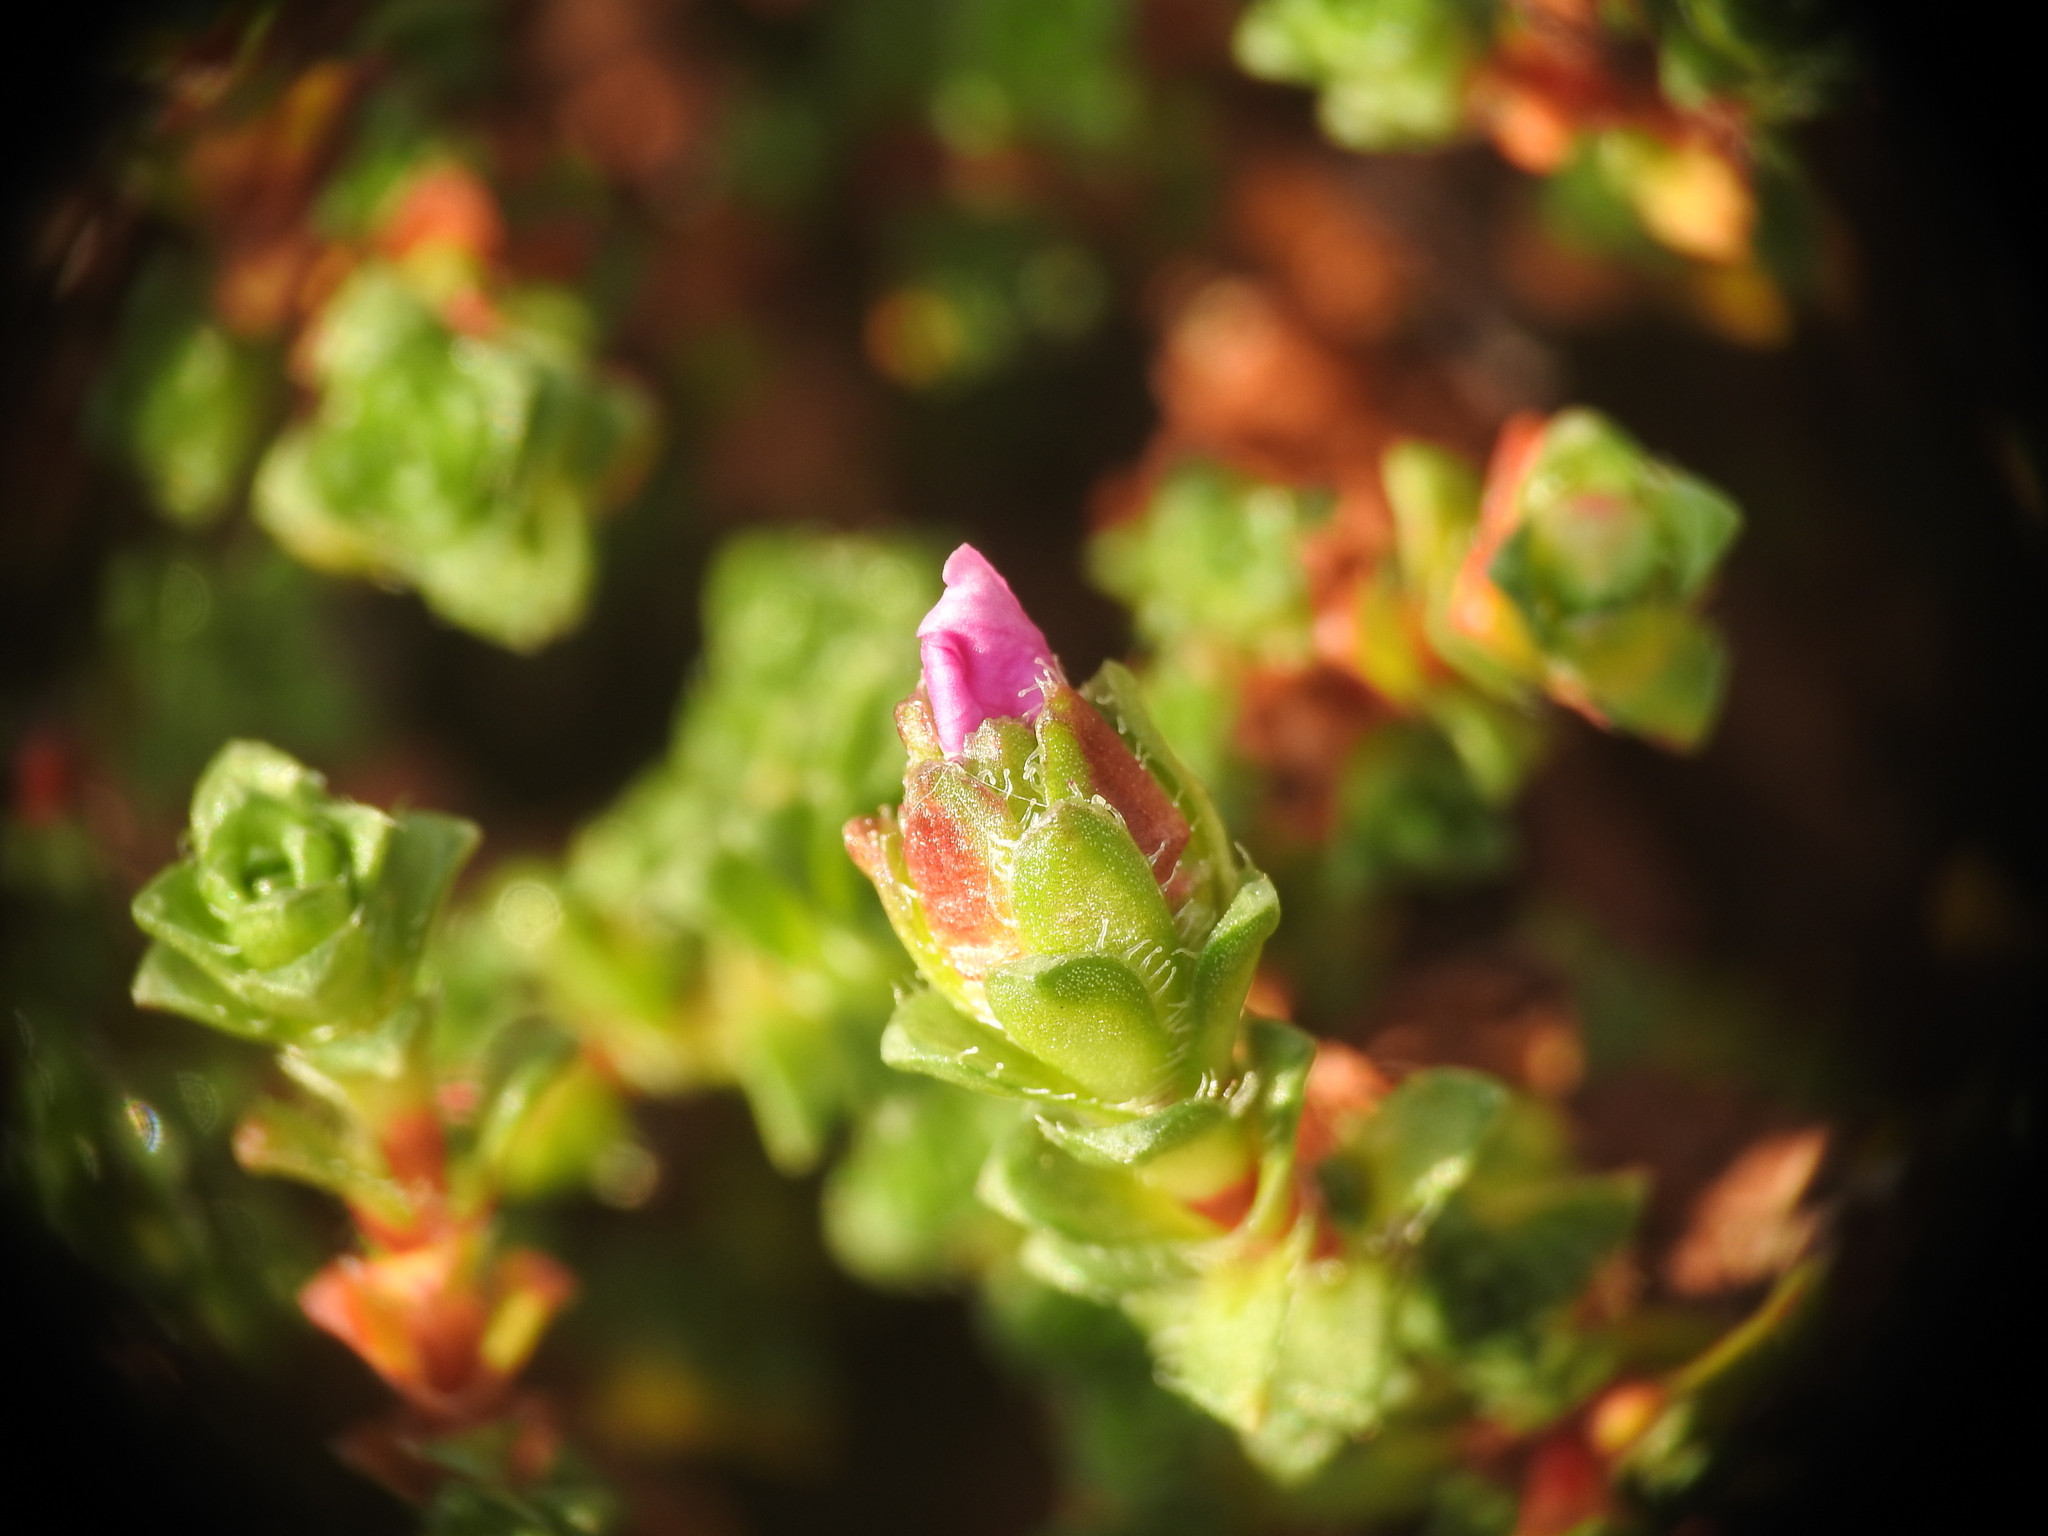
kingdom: Plantae
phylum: Tracheophyta
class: Magnoliopsida
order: Saxifragales
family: Saxifragaceae
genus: Saxifraga
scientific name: Saxifraga oppositifolia
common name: Purple saxifrage
